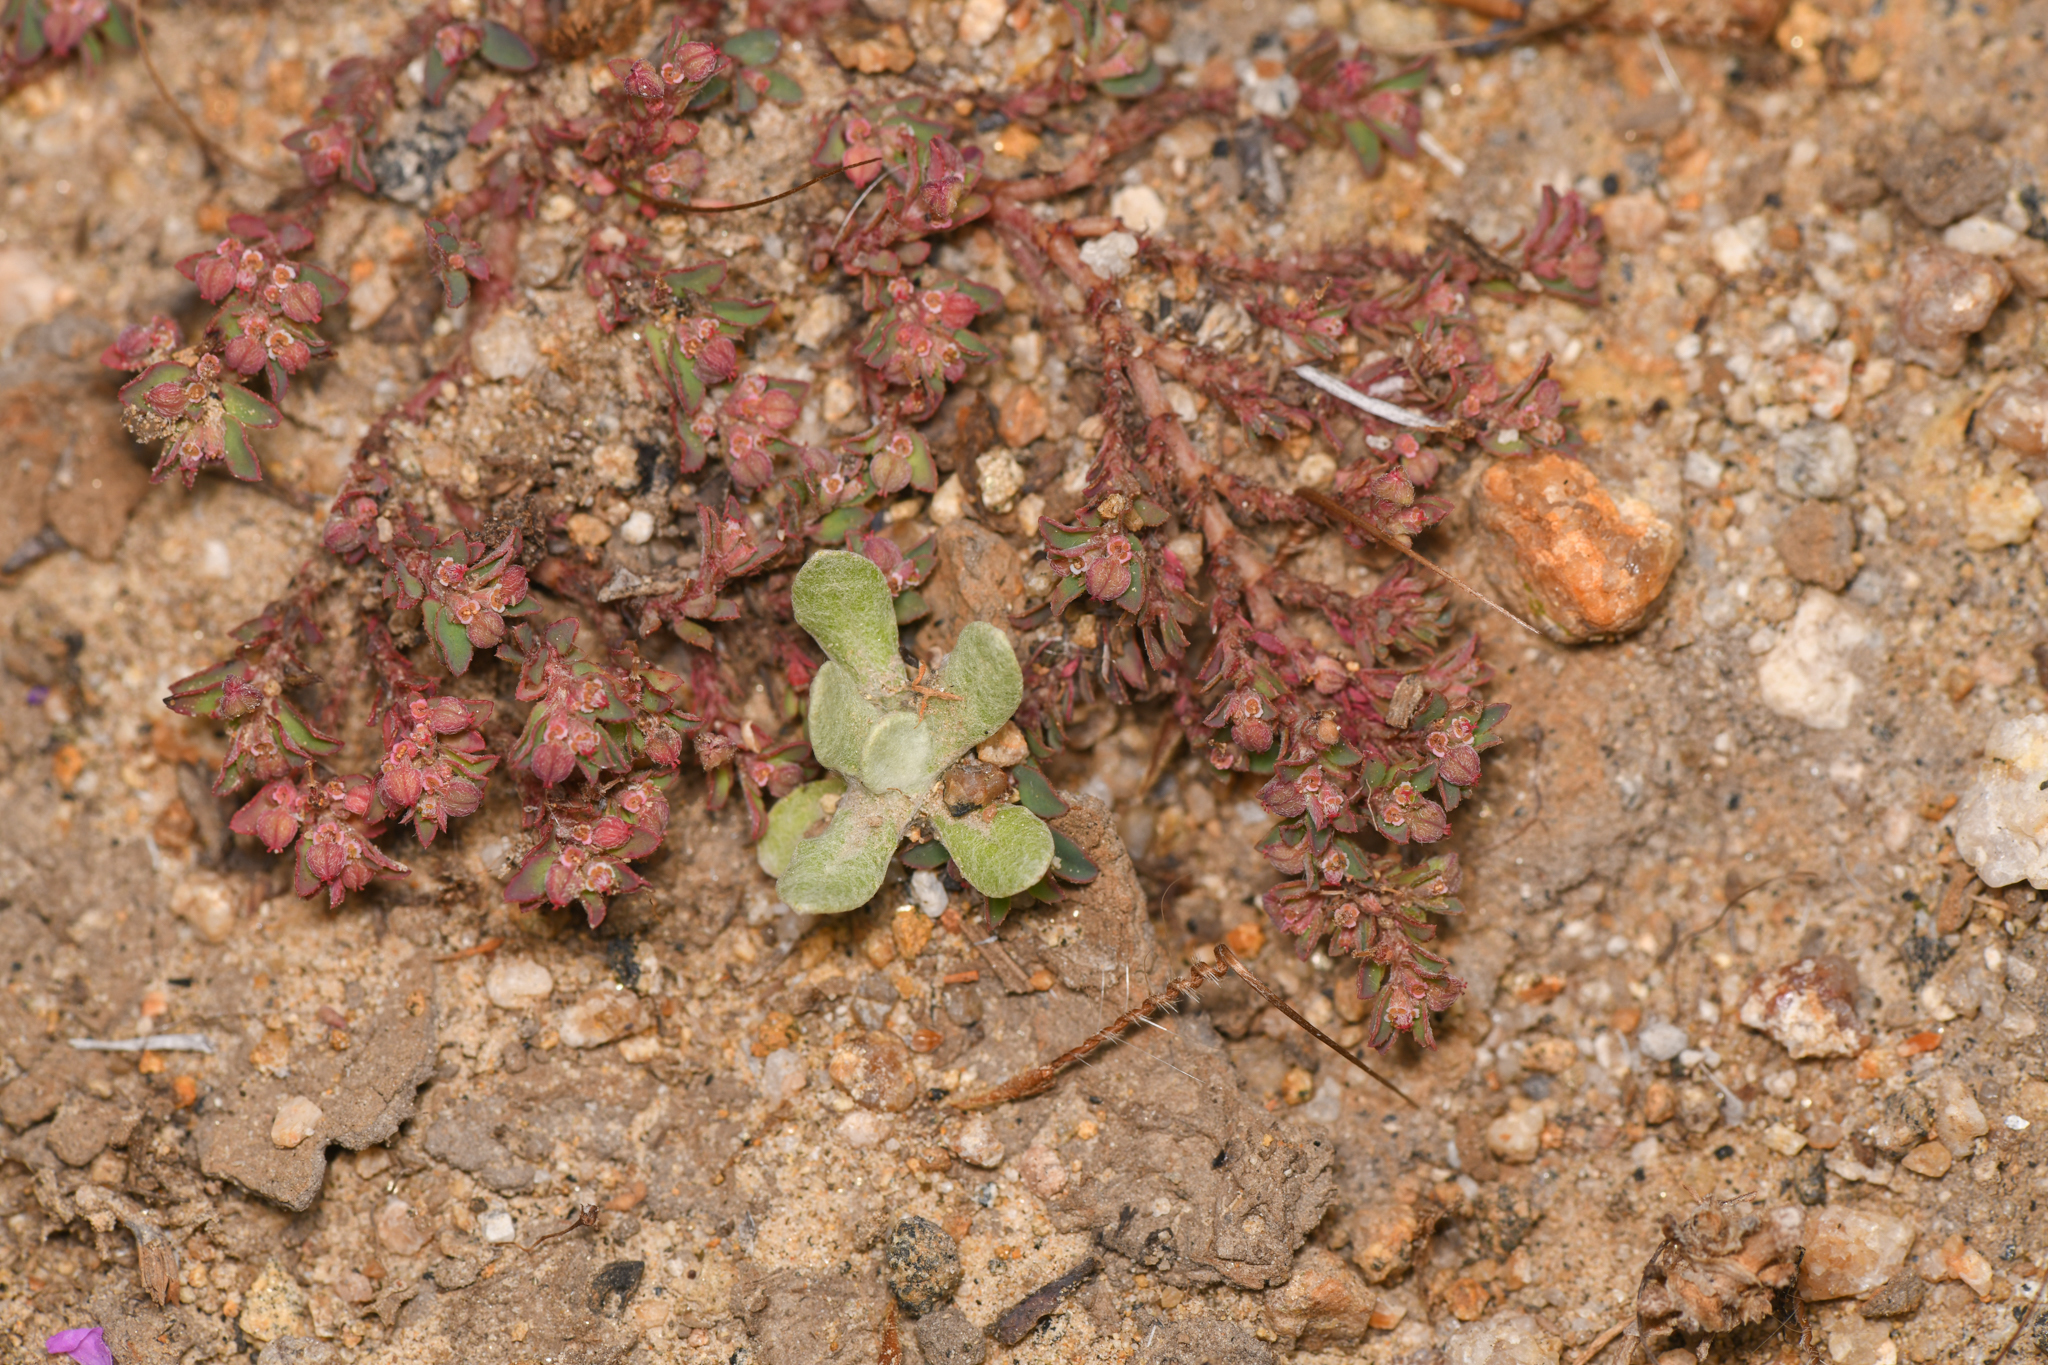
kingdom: Plantae
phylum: Tracheophyta
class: Magnoliopsida
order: Malpighiales
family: Euphorbiaceae
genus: Euphorbia
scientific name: Euphorbia maculata
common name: Spotted spurge
